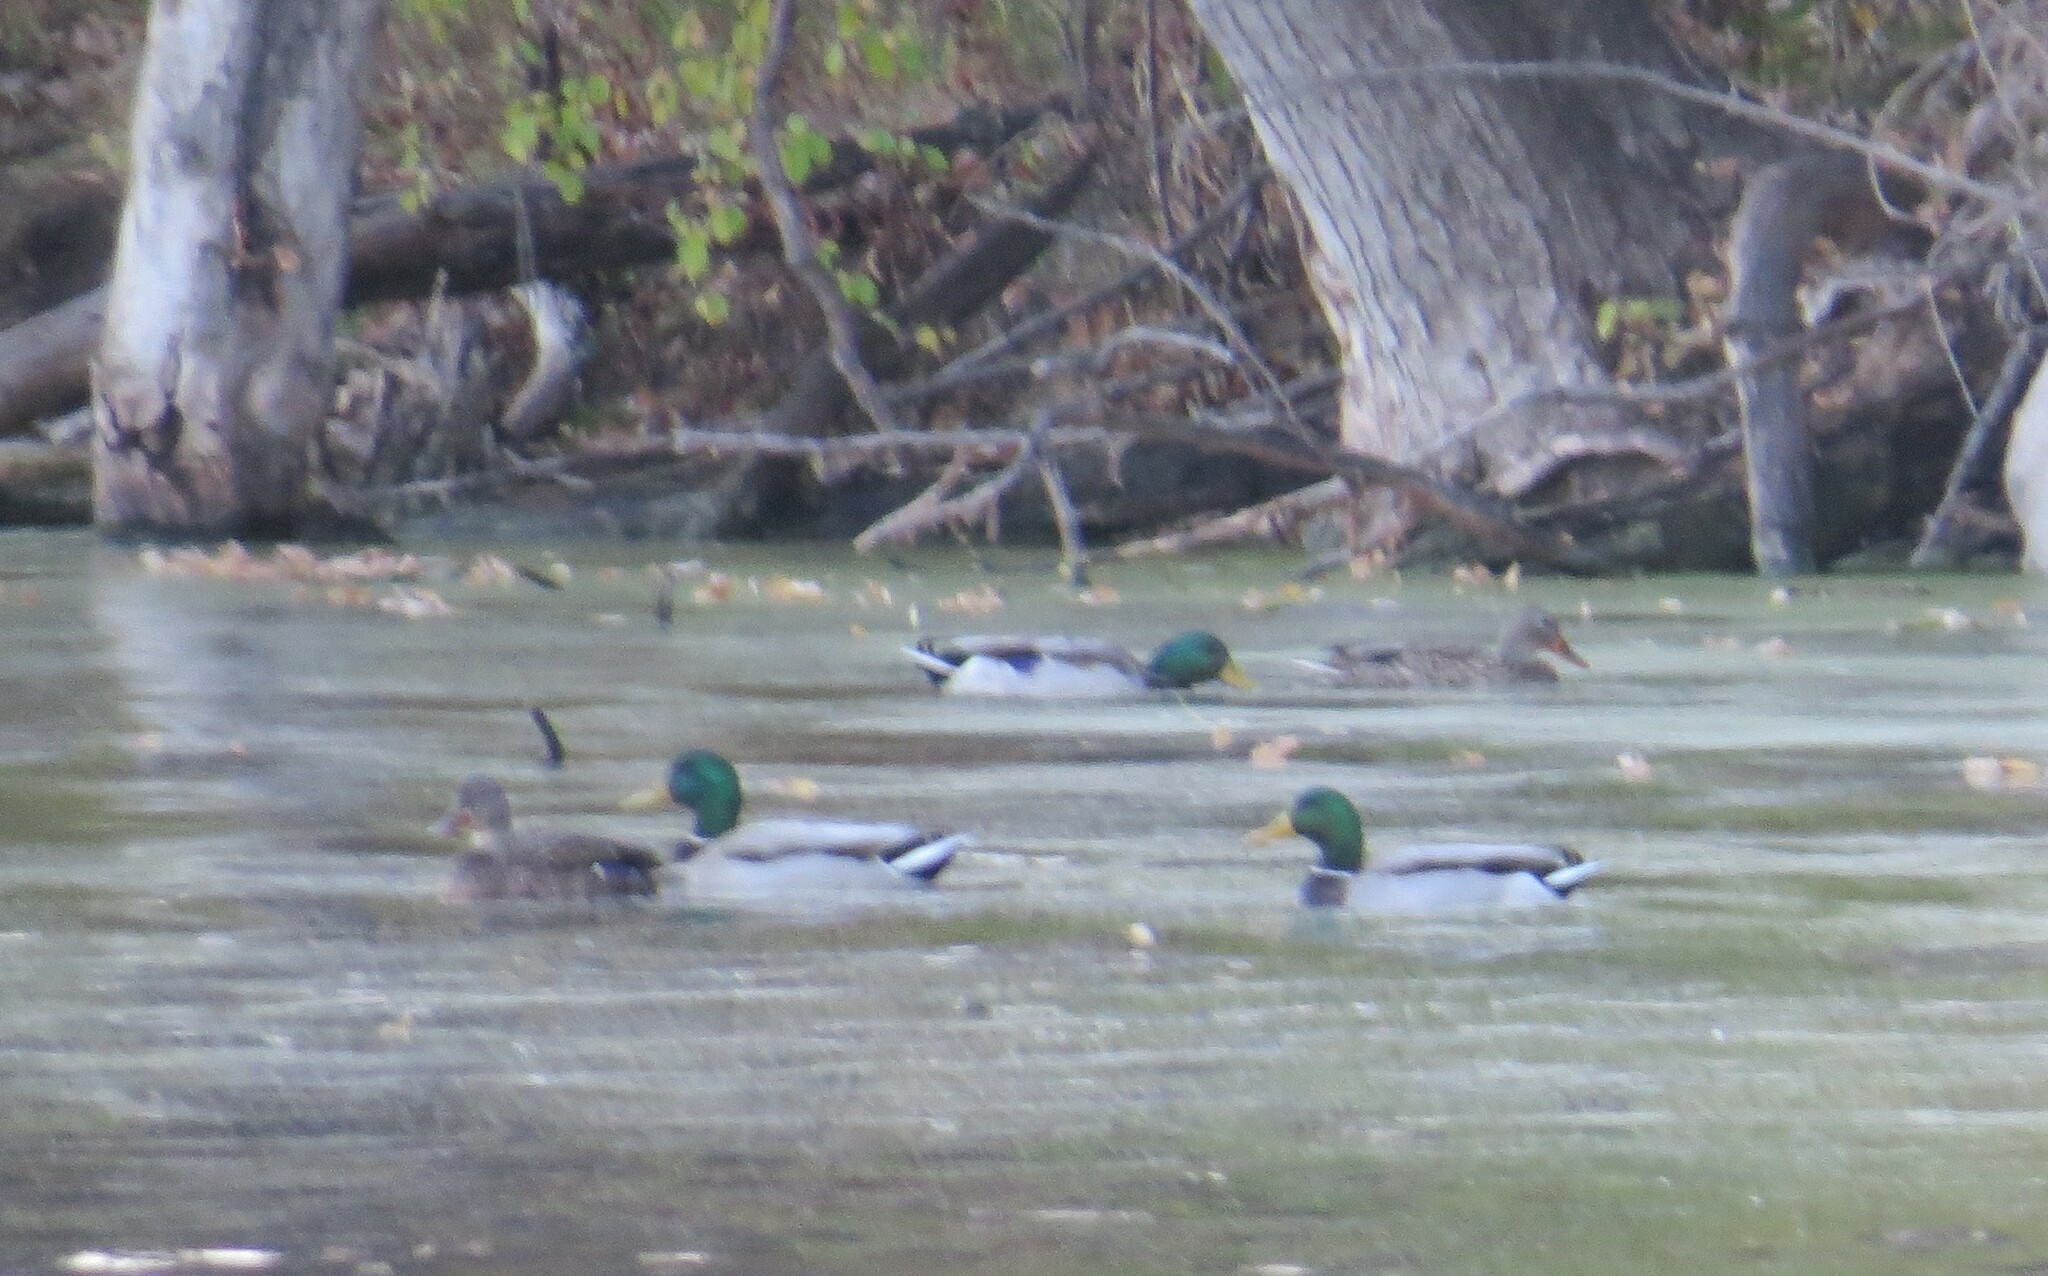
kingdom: Animalia
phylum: Chordata
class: Aves
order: Anseriformes
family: Anatidae
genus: Anas
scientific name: Anas platyrhynchos
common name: Mallard
